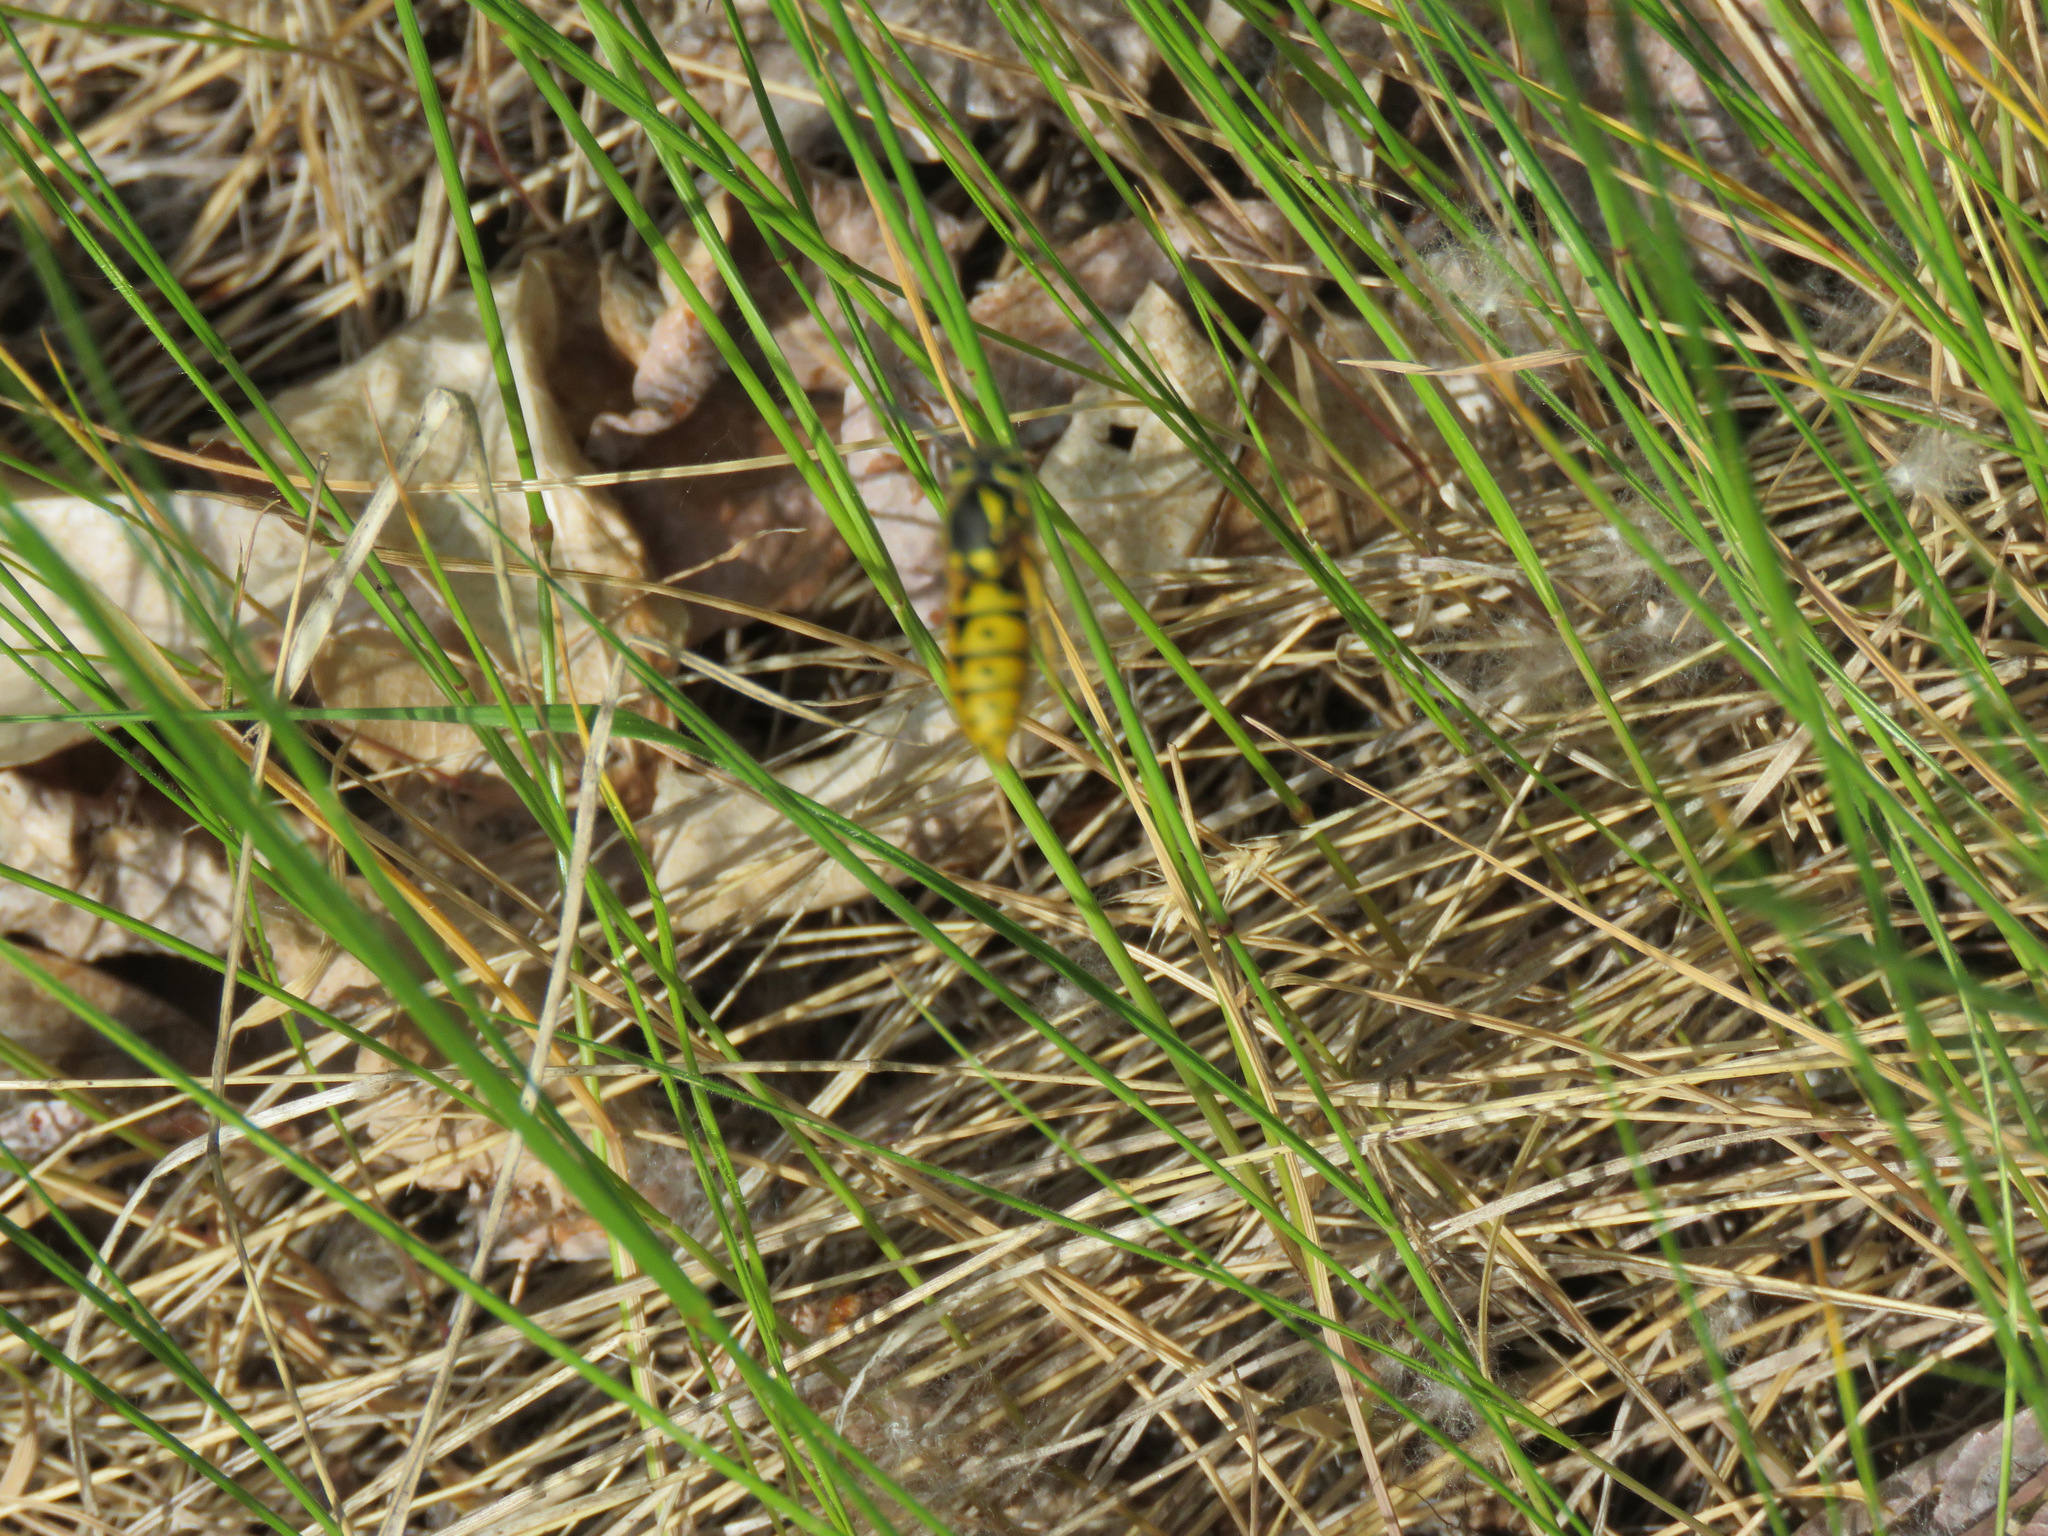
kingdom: Animalia
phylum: Arthropoda
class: Insecta
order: Hymenoptera
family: Vespidae
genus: Vespula
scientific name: Vespula pensylvanica
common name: Western yellowjacket
